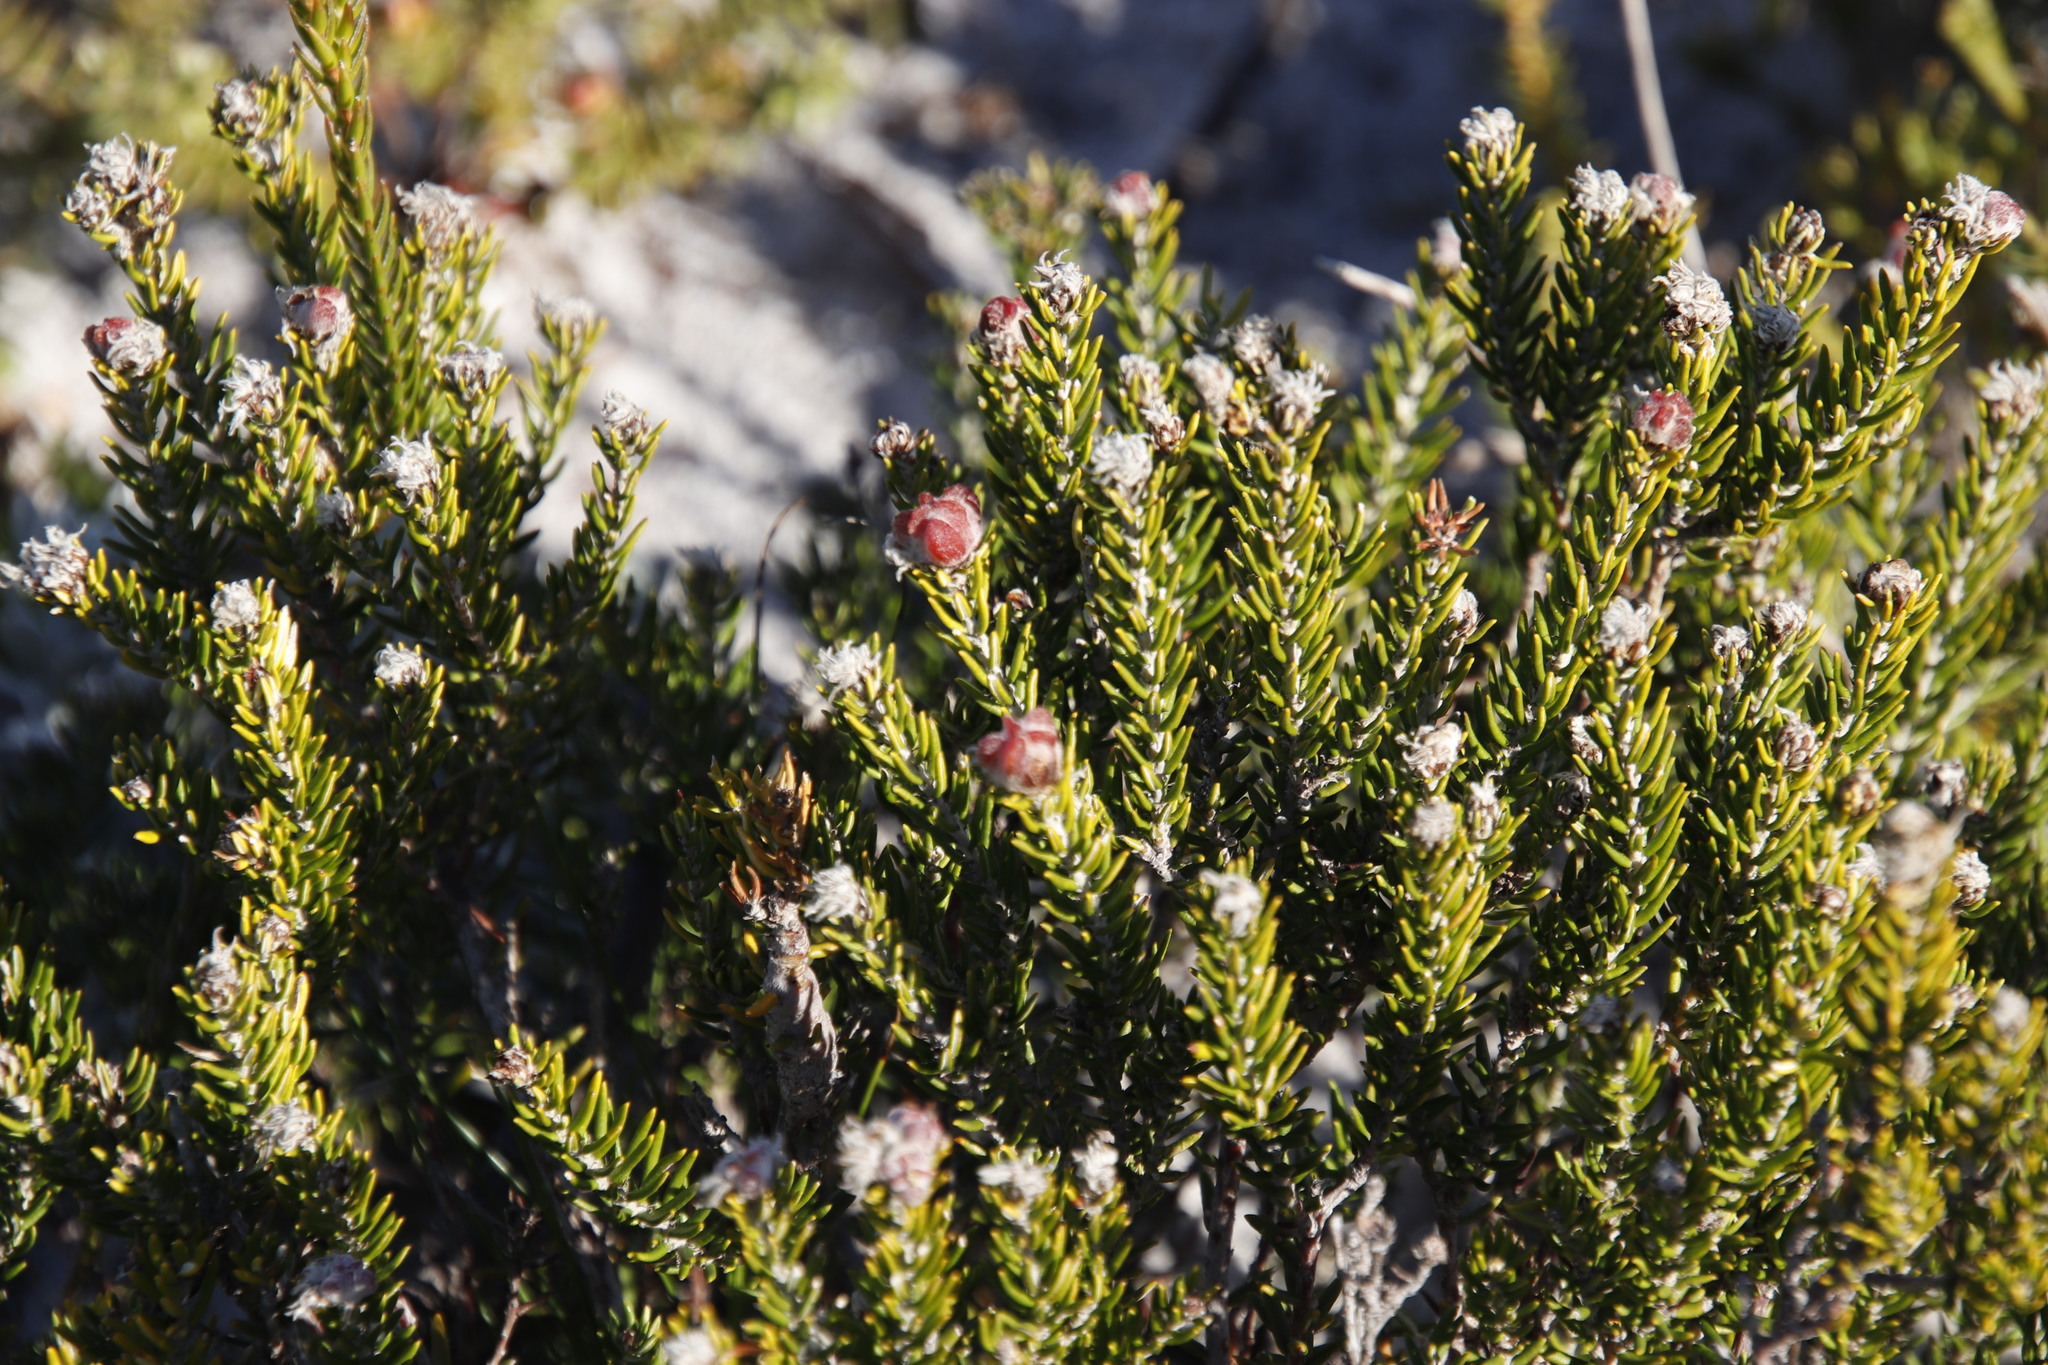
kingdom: Plantae
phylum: Tracheophyta
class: Magnoliopsida
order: Rosales
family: Rhamnaceae
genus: Trichocephalus
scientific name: Trichocephalus stipularis
